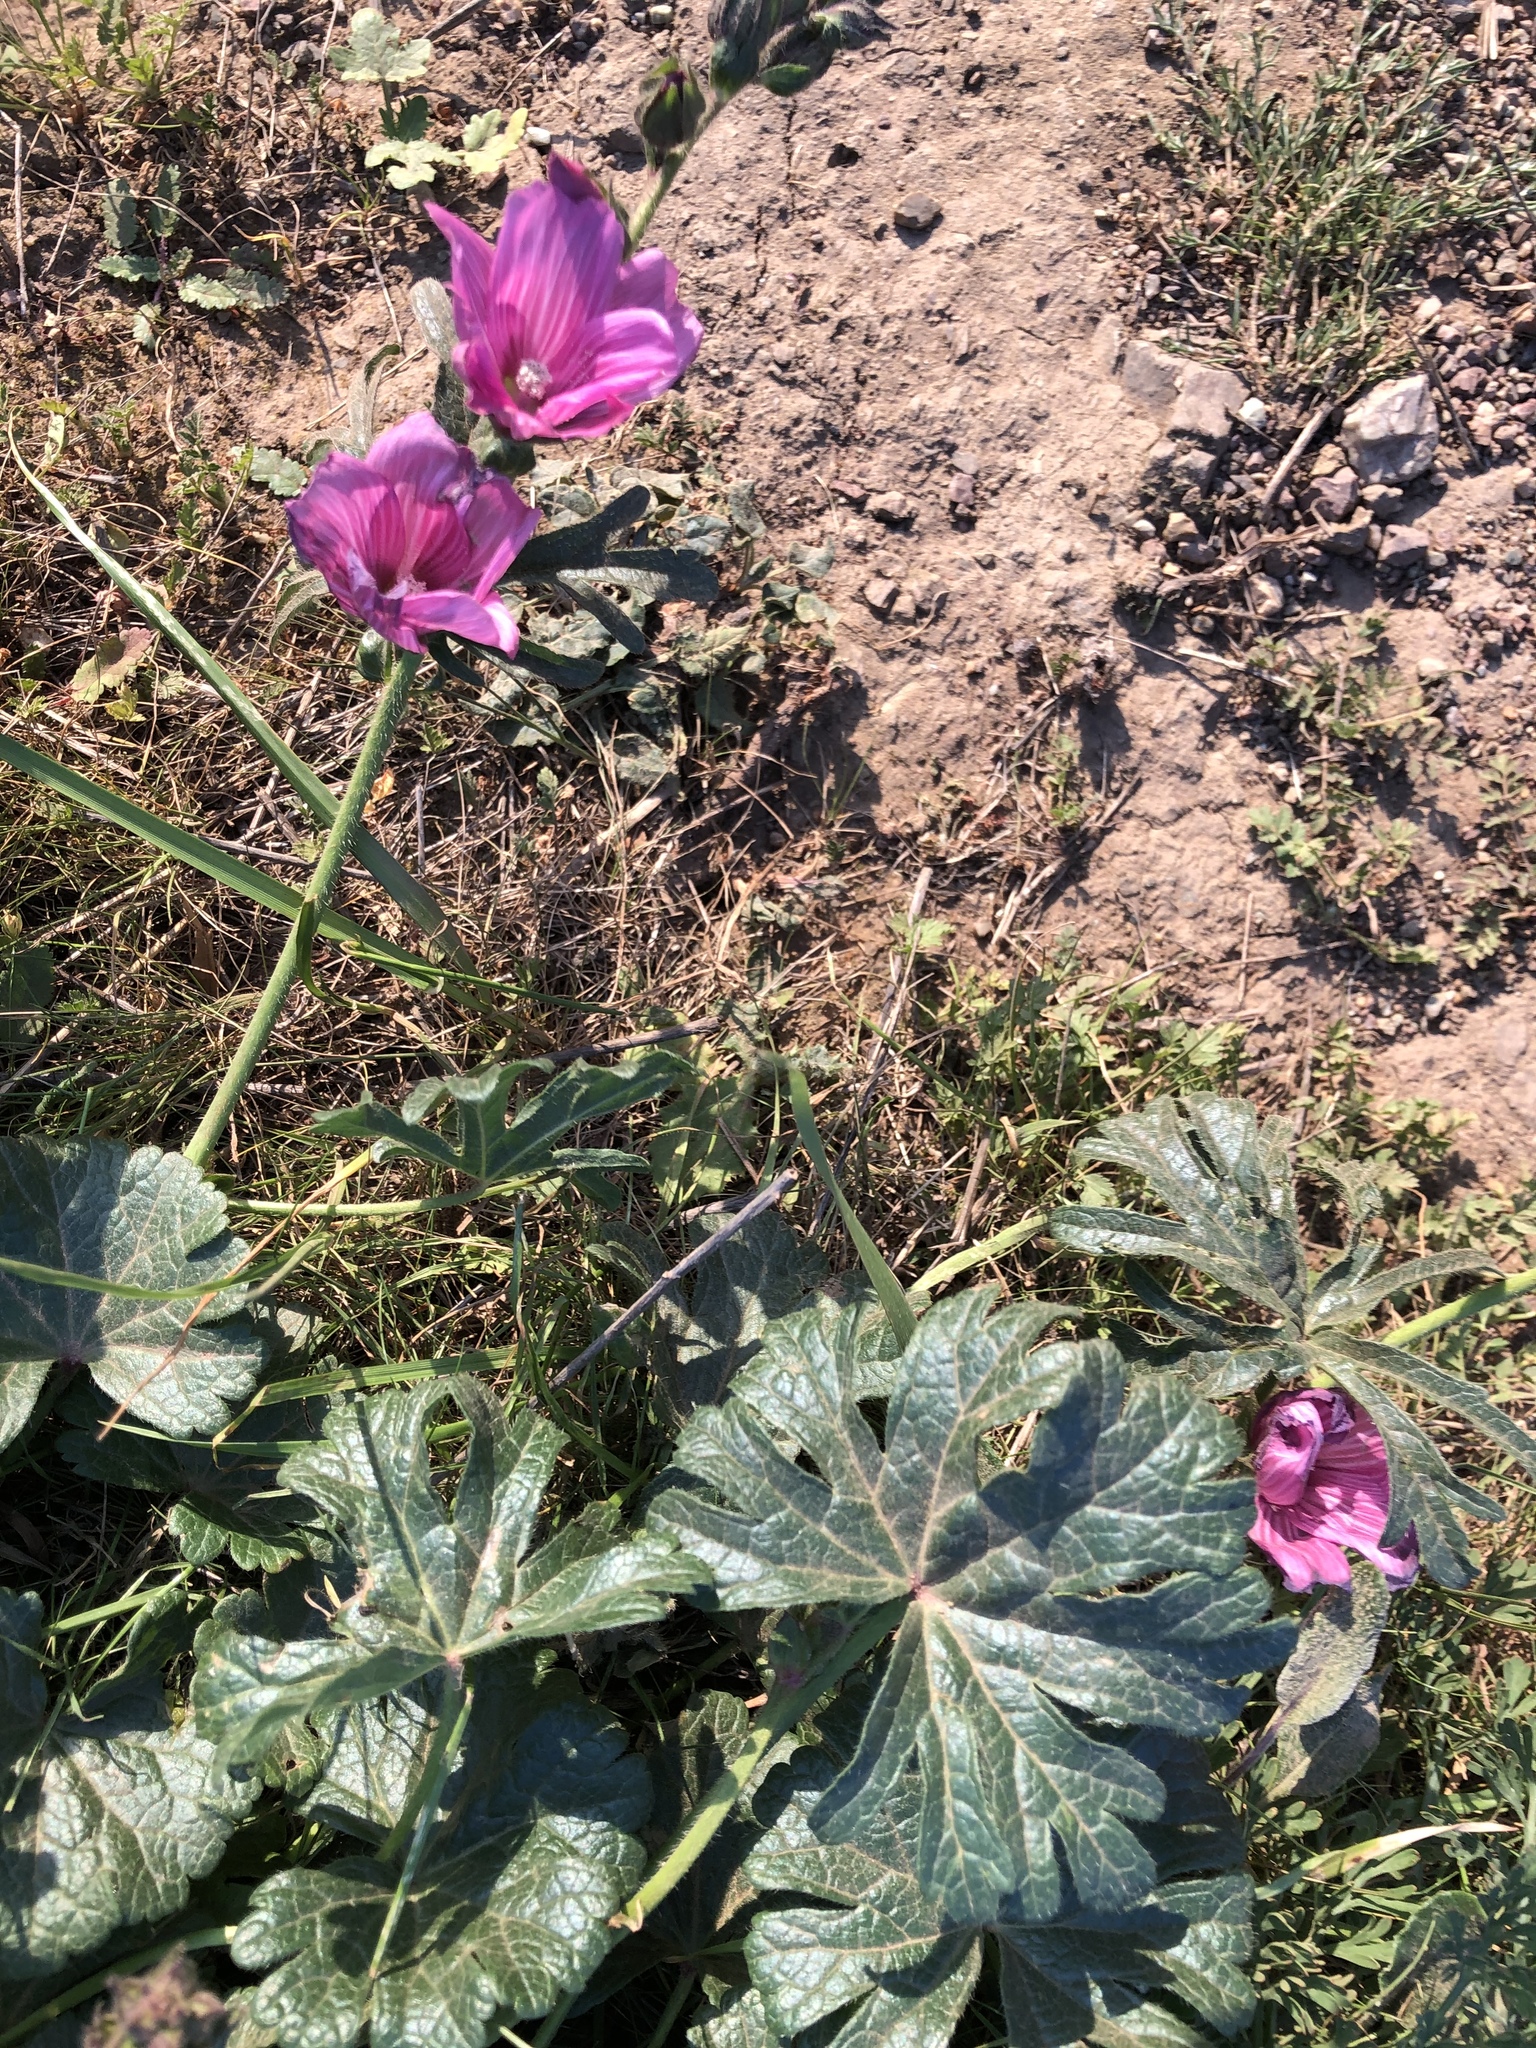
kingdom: Plantae
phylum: Tracheophyta
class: Magnoliopsida
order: Malvales
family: Malvaceae
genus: Sidalcea
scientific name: Sidalcea malviflora
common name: Greek mallow
